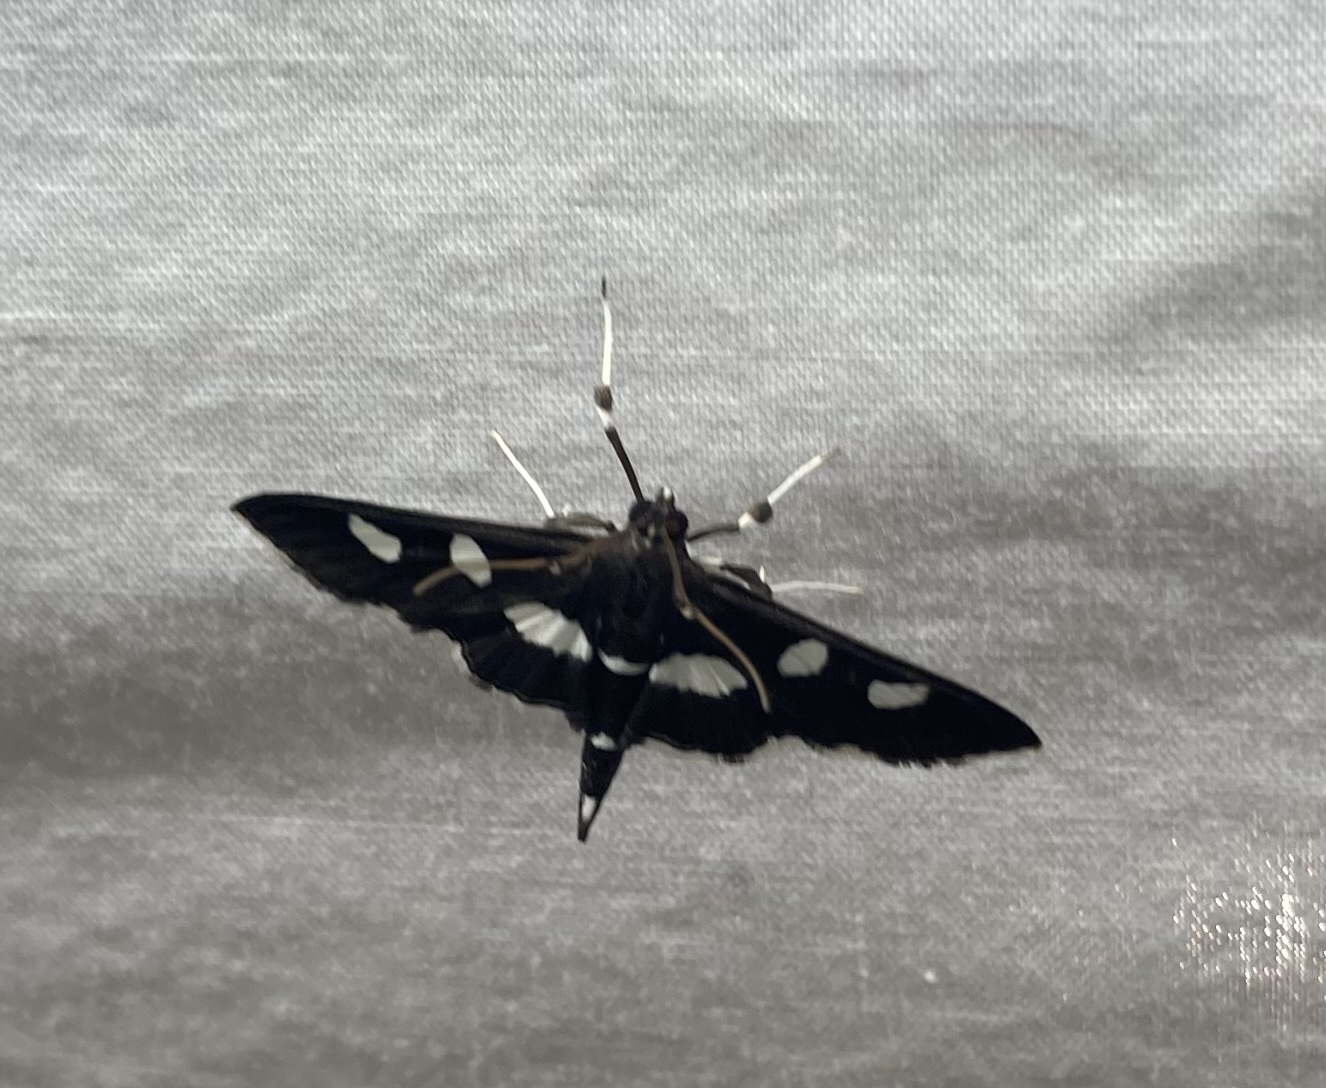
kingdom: Animalia
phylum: Arthropoda
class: Insecta
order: Lepidoptera
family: Crambidae
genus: Desmia
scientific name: Desmia
